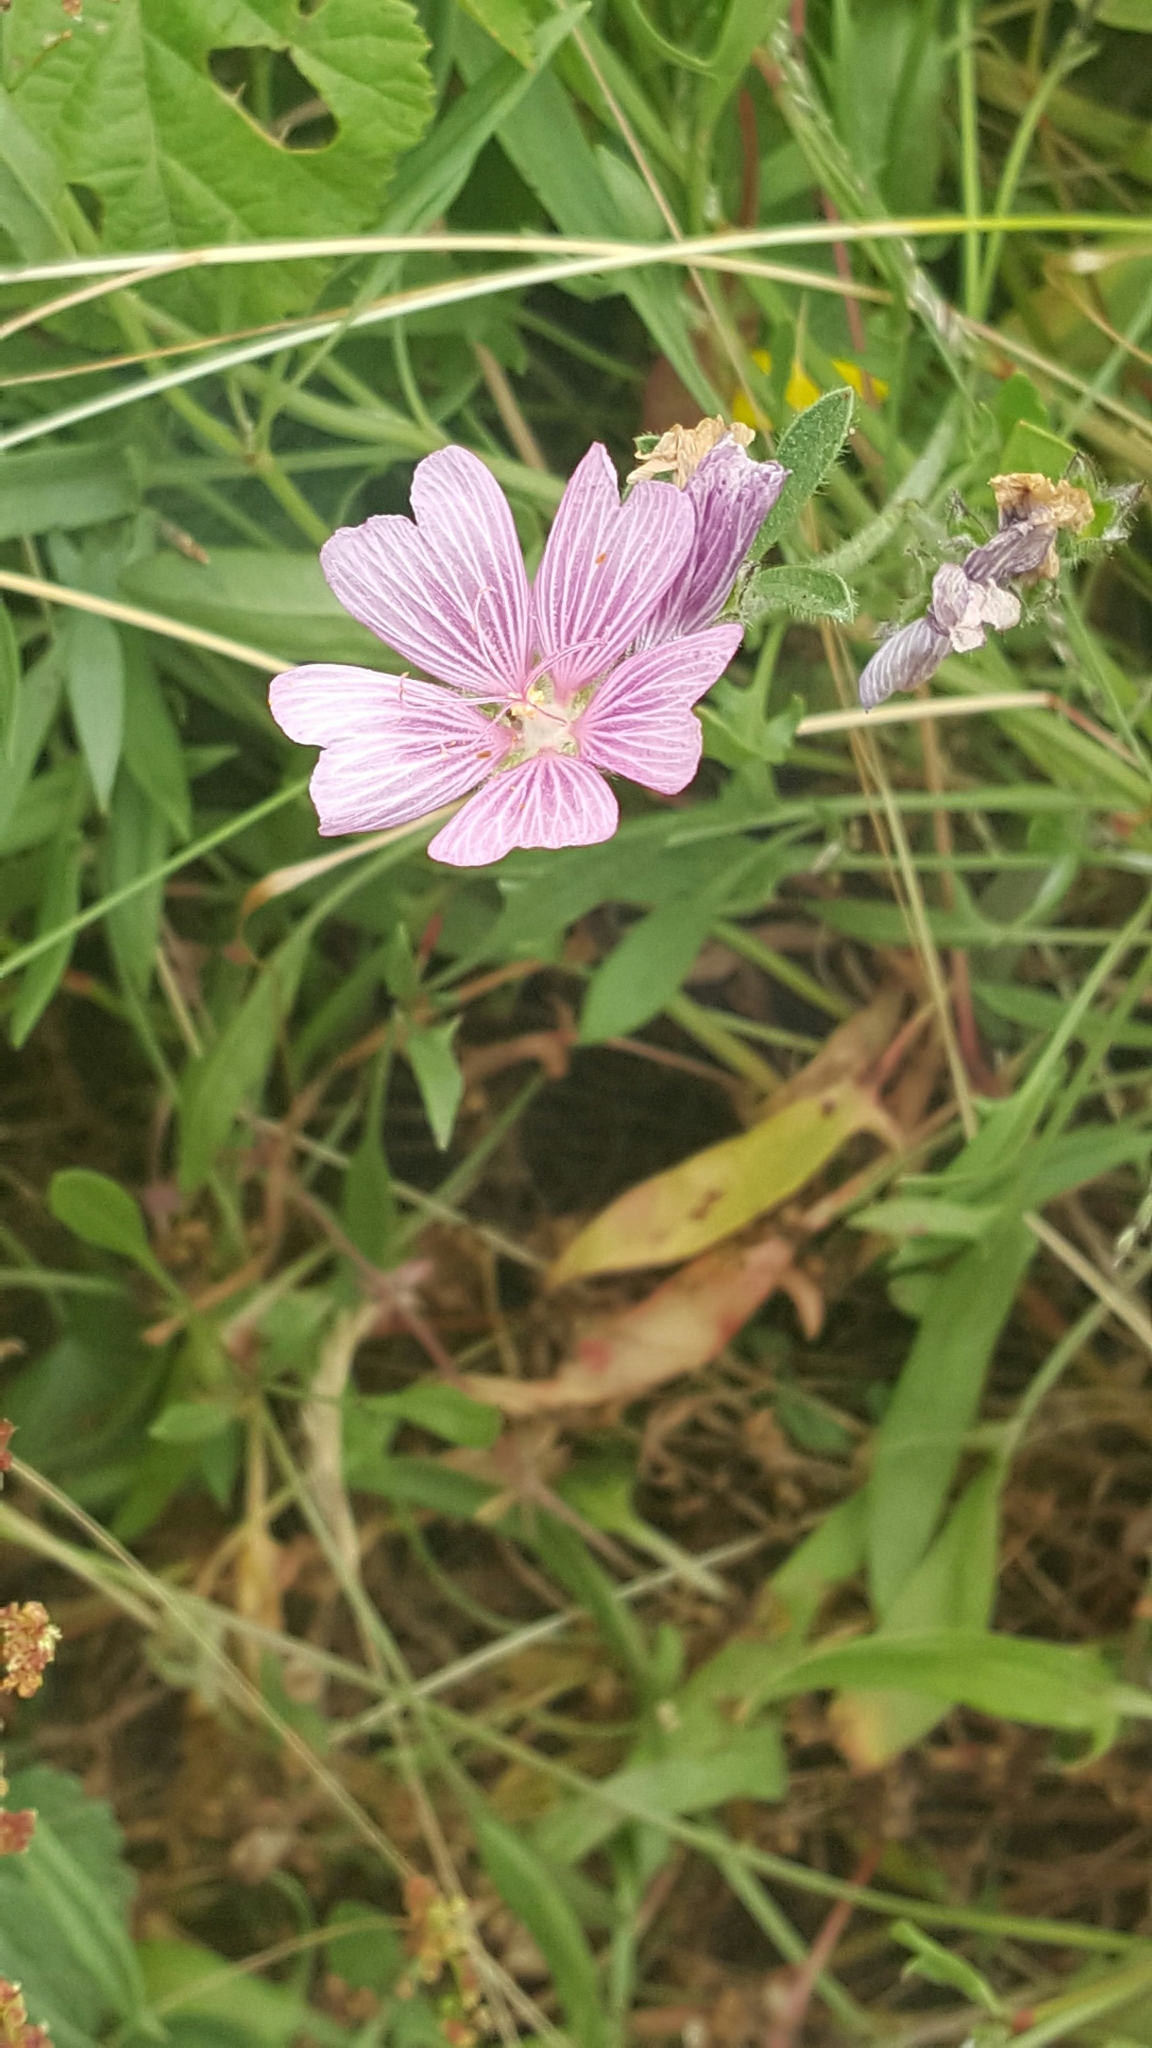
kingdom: Plantae
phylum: Tracheophyta
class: Magnoliopsida
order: Malvales
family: Malvaceae
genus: Sidalcea
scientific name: Sidalcea malviflora
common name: Greek mallow
